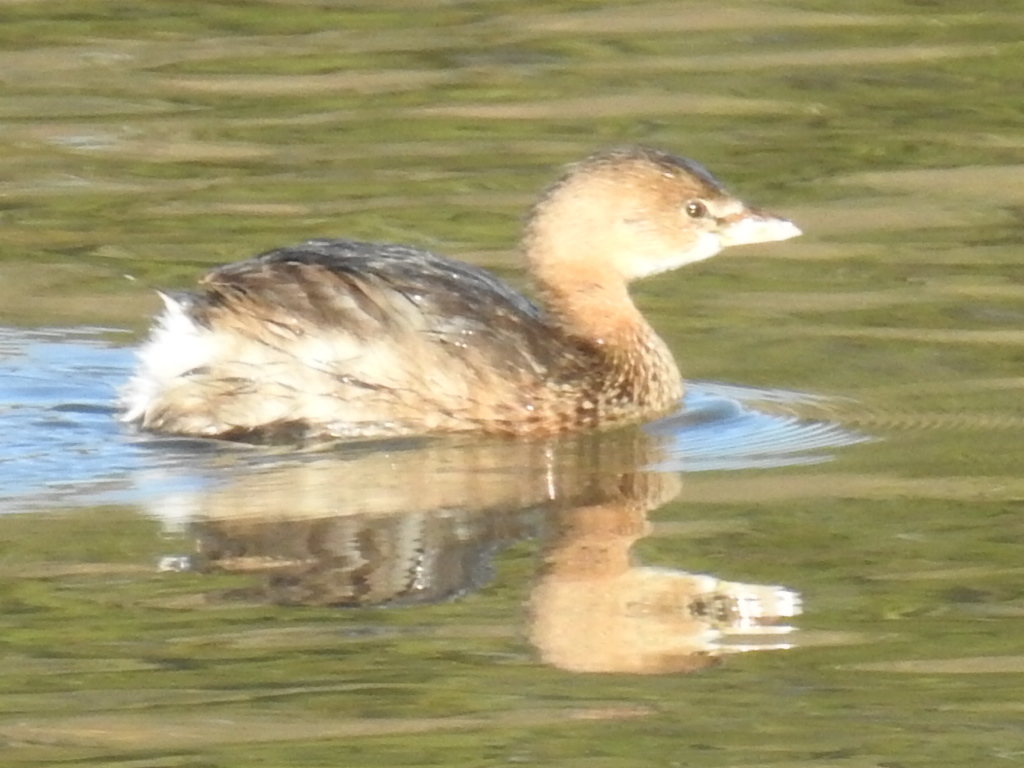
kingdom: Animalia
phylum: Chordata
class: Aves
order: Podicipediformes
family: Podicipedidae
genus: Podilymbus
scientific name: Podilymbus podiceps
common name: Pied-billed grebe
